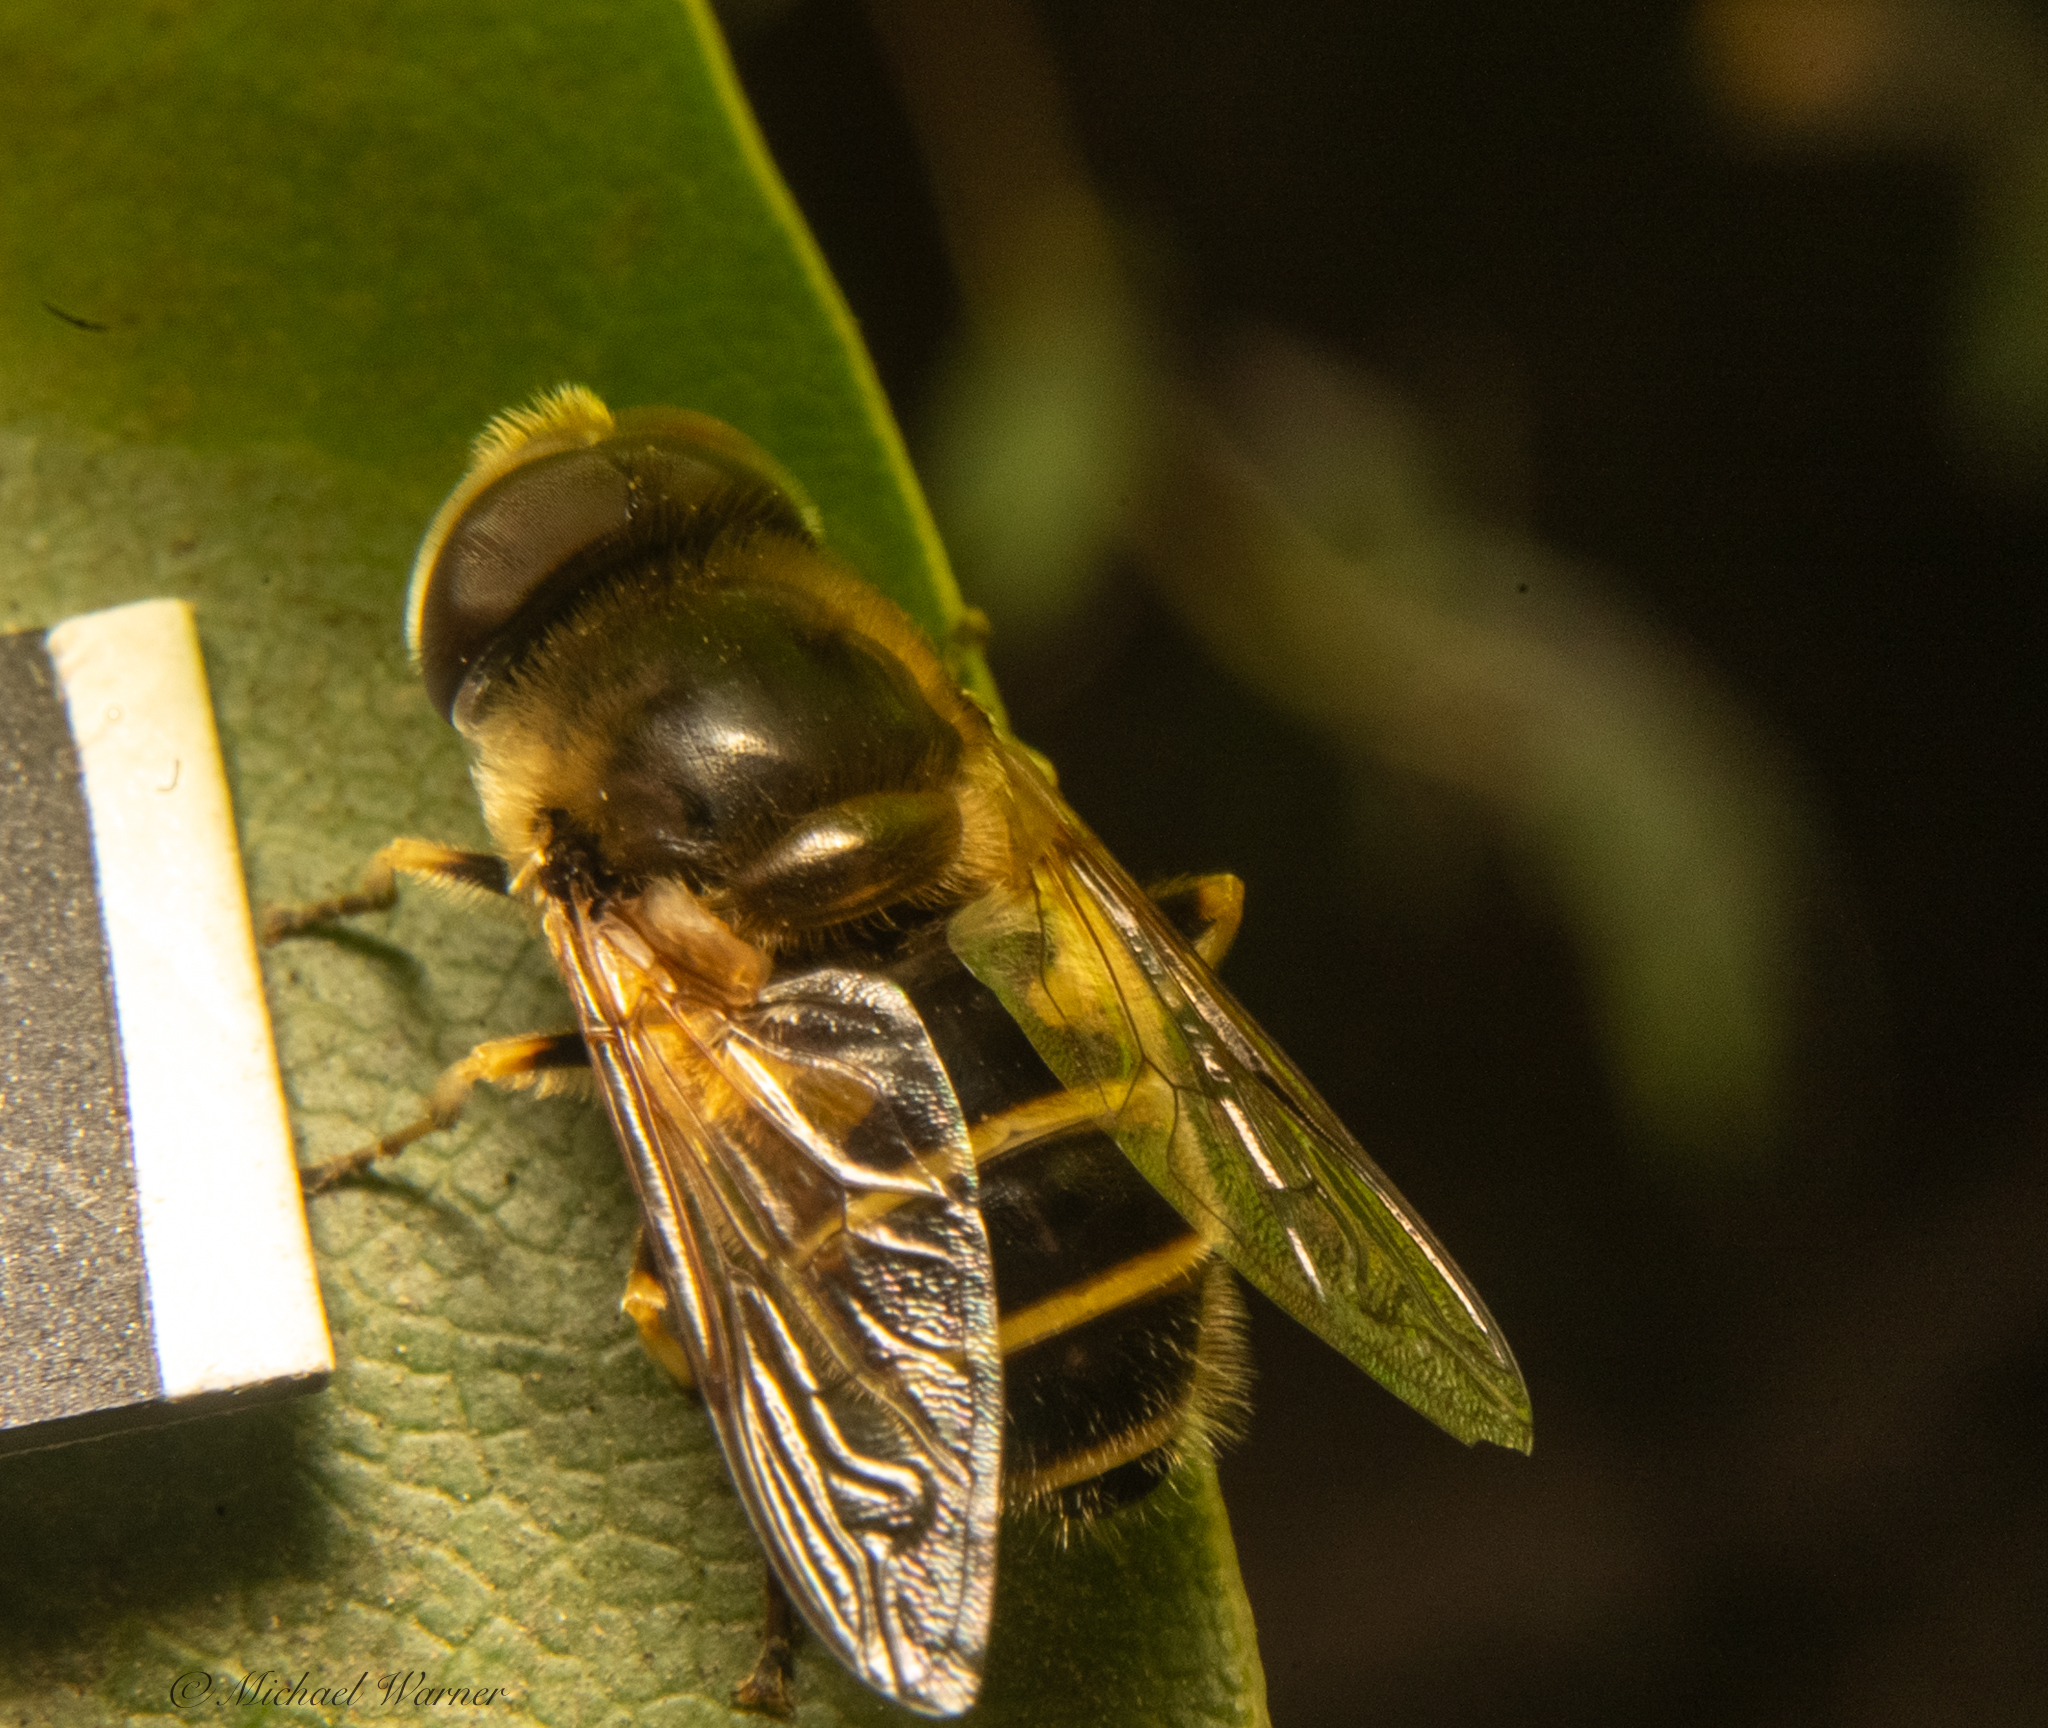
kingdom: Animalia
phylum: Arthropoda
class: Insecta
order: Diptera
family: Syrphidae
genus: Eristalis
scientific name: Eristalis hirta
